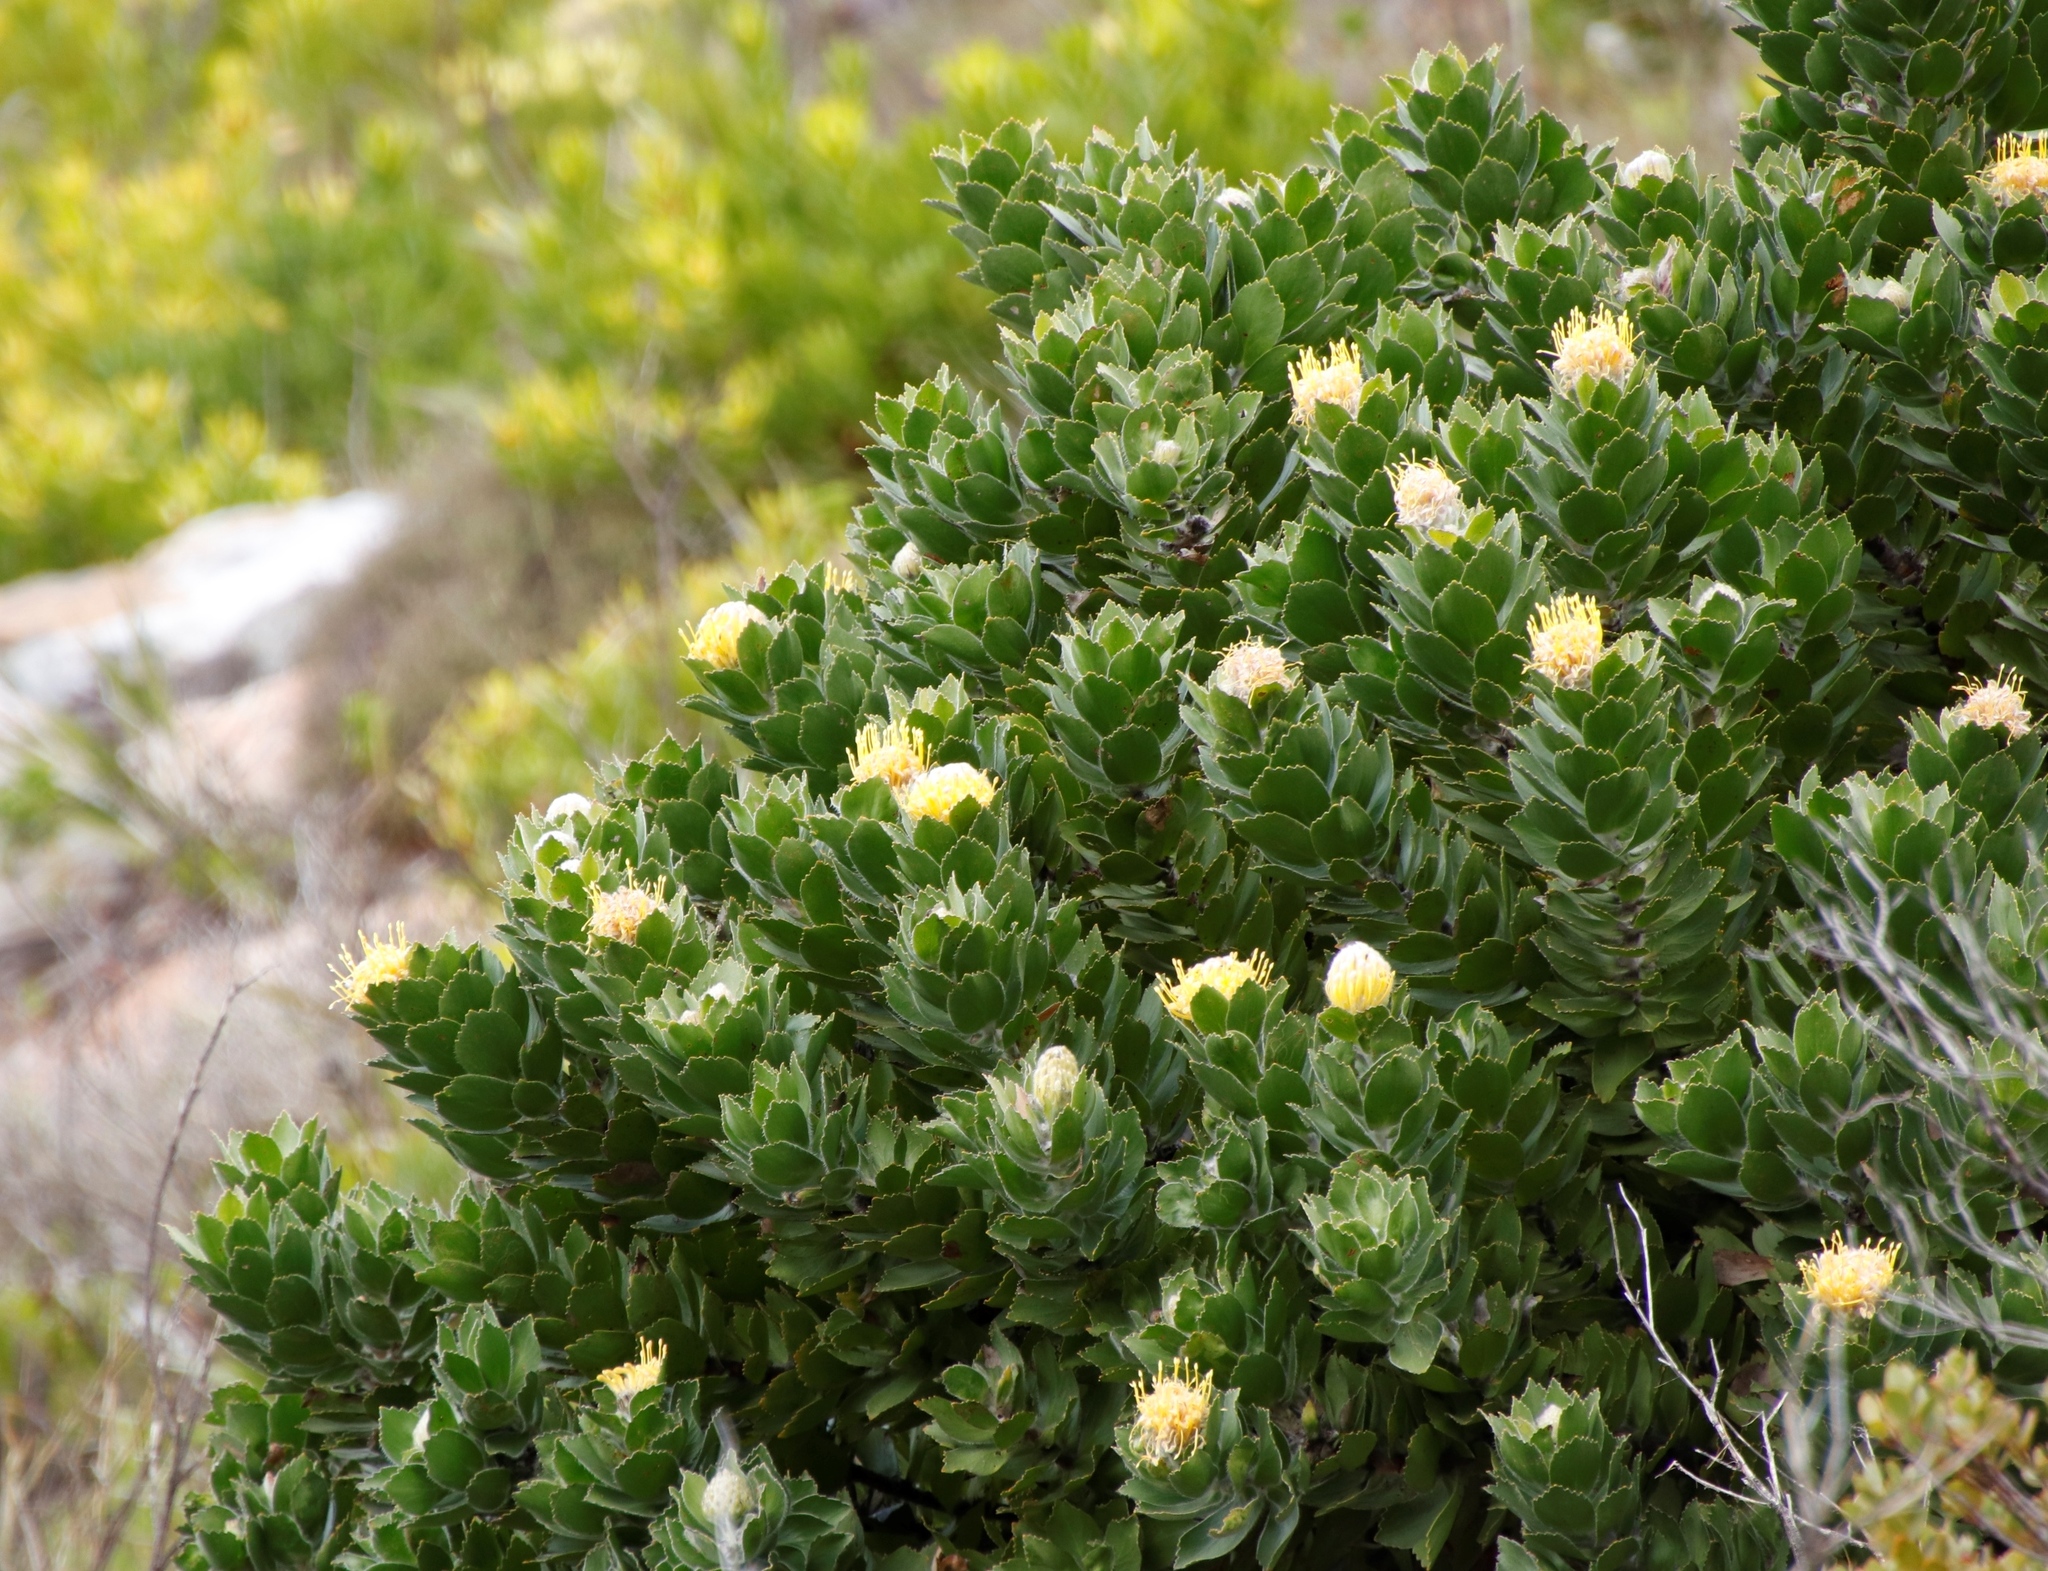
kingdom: Plantae
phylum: Tracheophyta
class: Magnoliopsida
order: Proteales
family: Proteaceae
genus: Leucospermum
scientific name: Leucospermum conocarpodendron
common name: Tree pincushion
